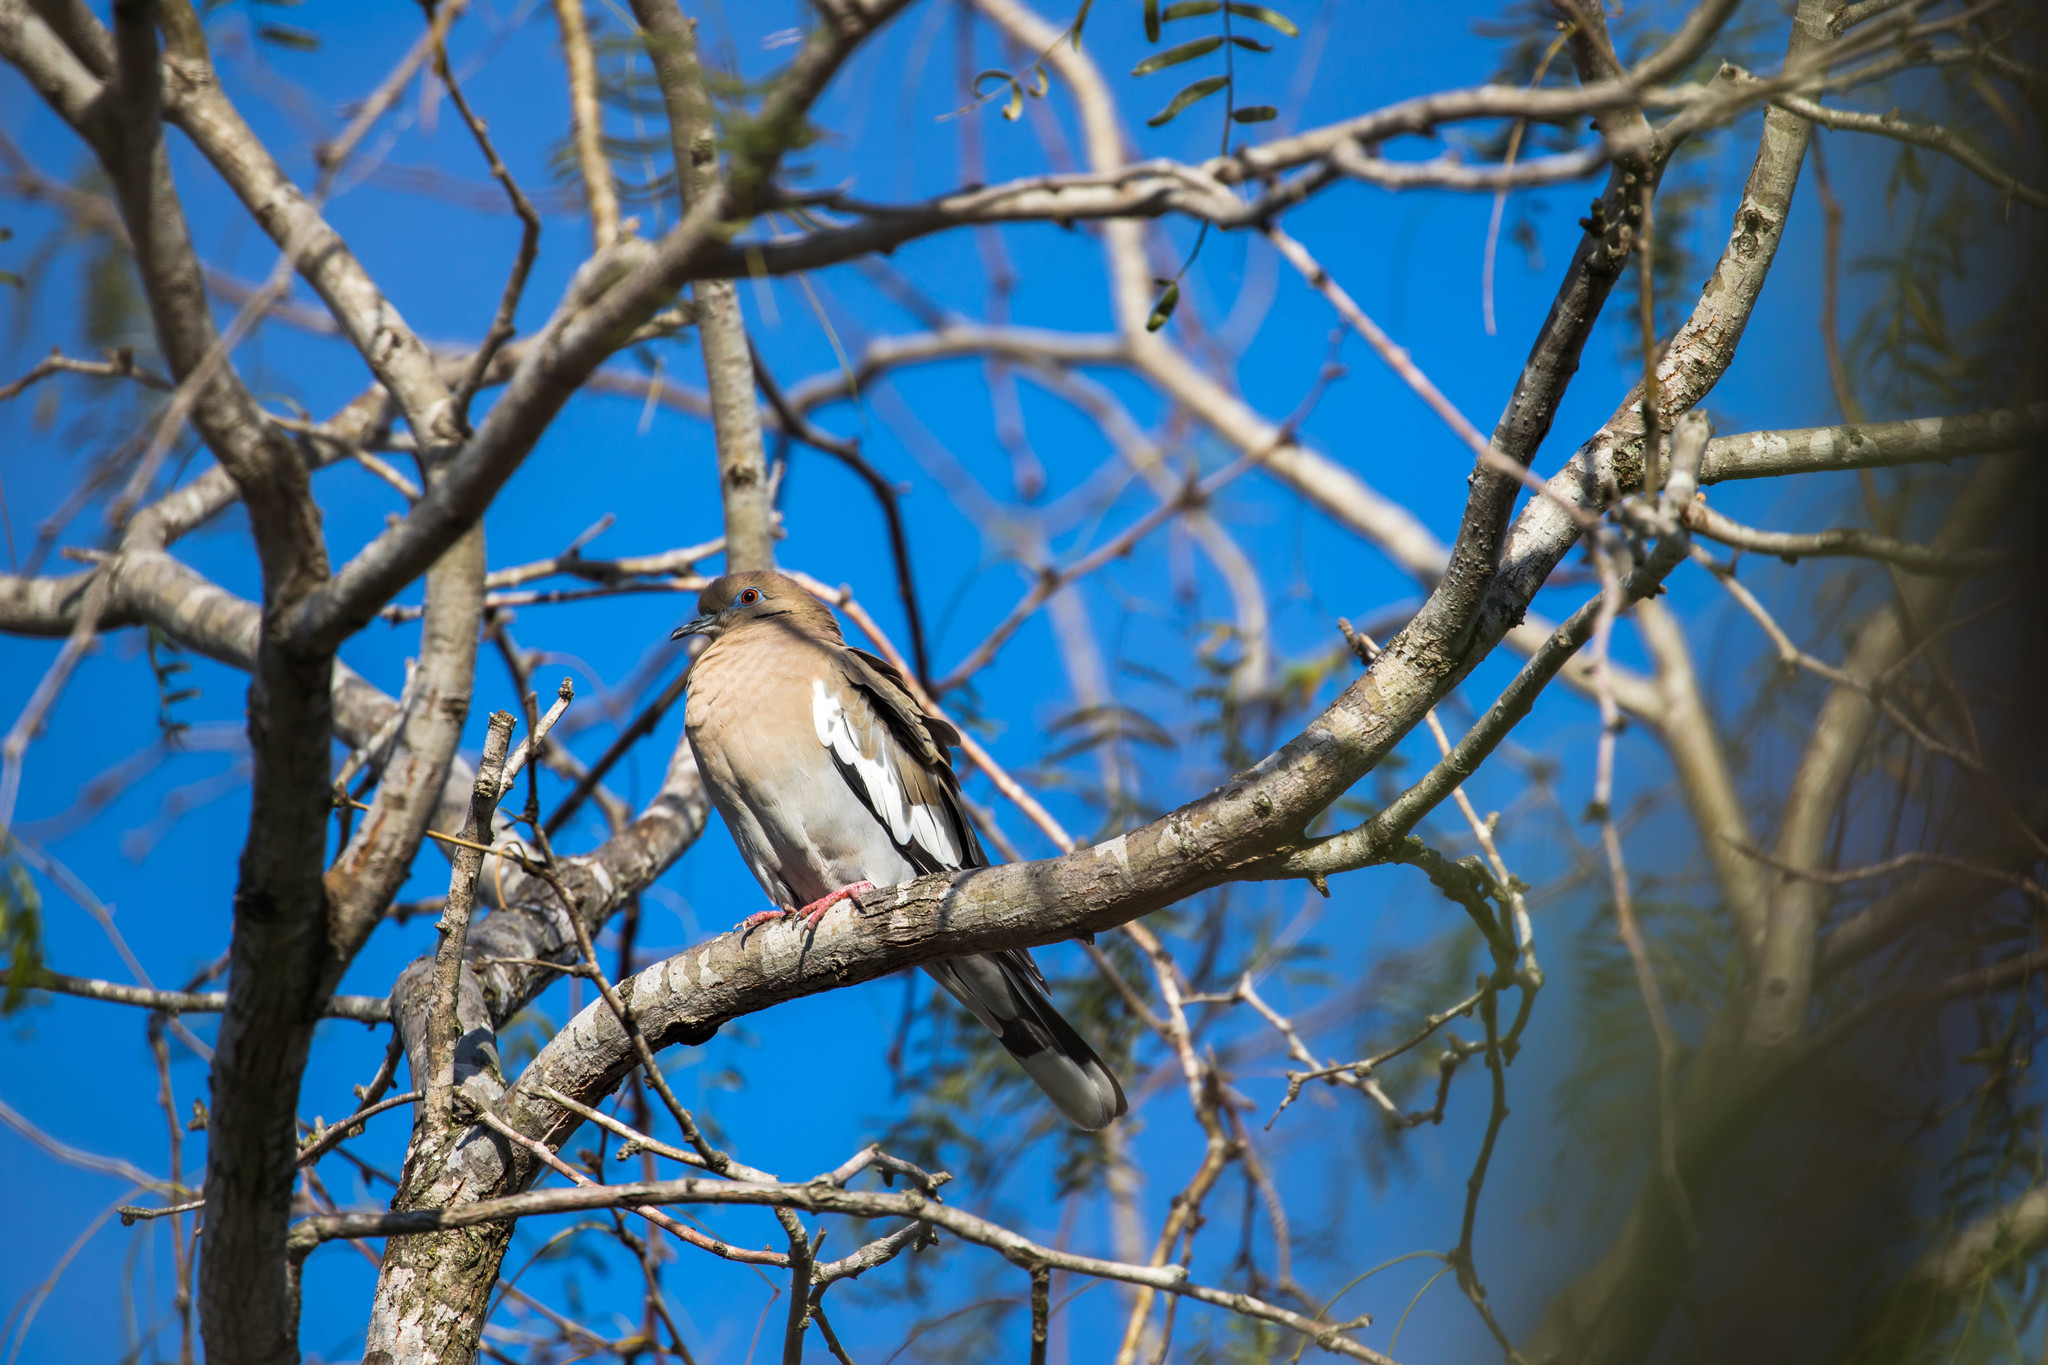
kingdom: Animalia
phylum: Chordata
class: Aves
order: Columbiformes
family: Columbidae
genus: Zenaida
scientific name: Zenaida asiatica
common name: White-winged dove
